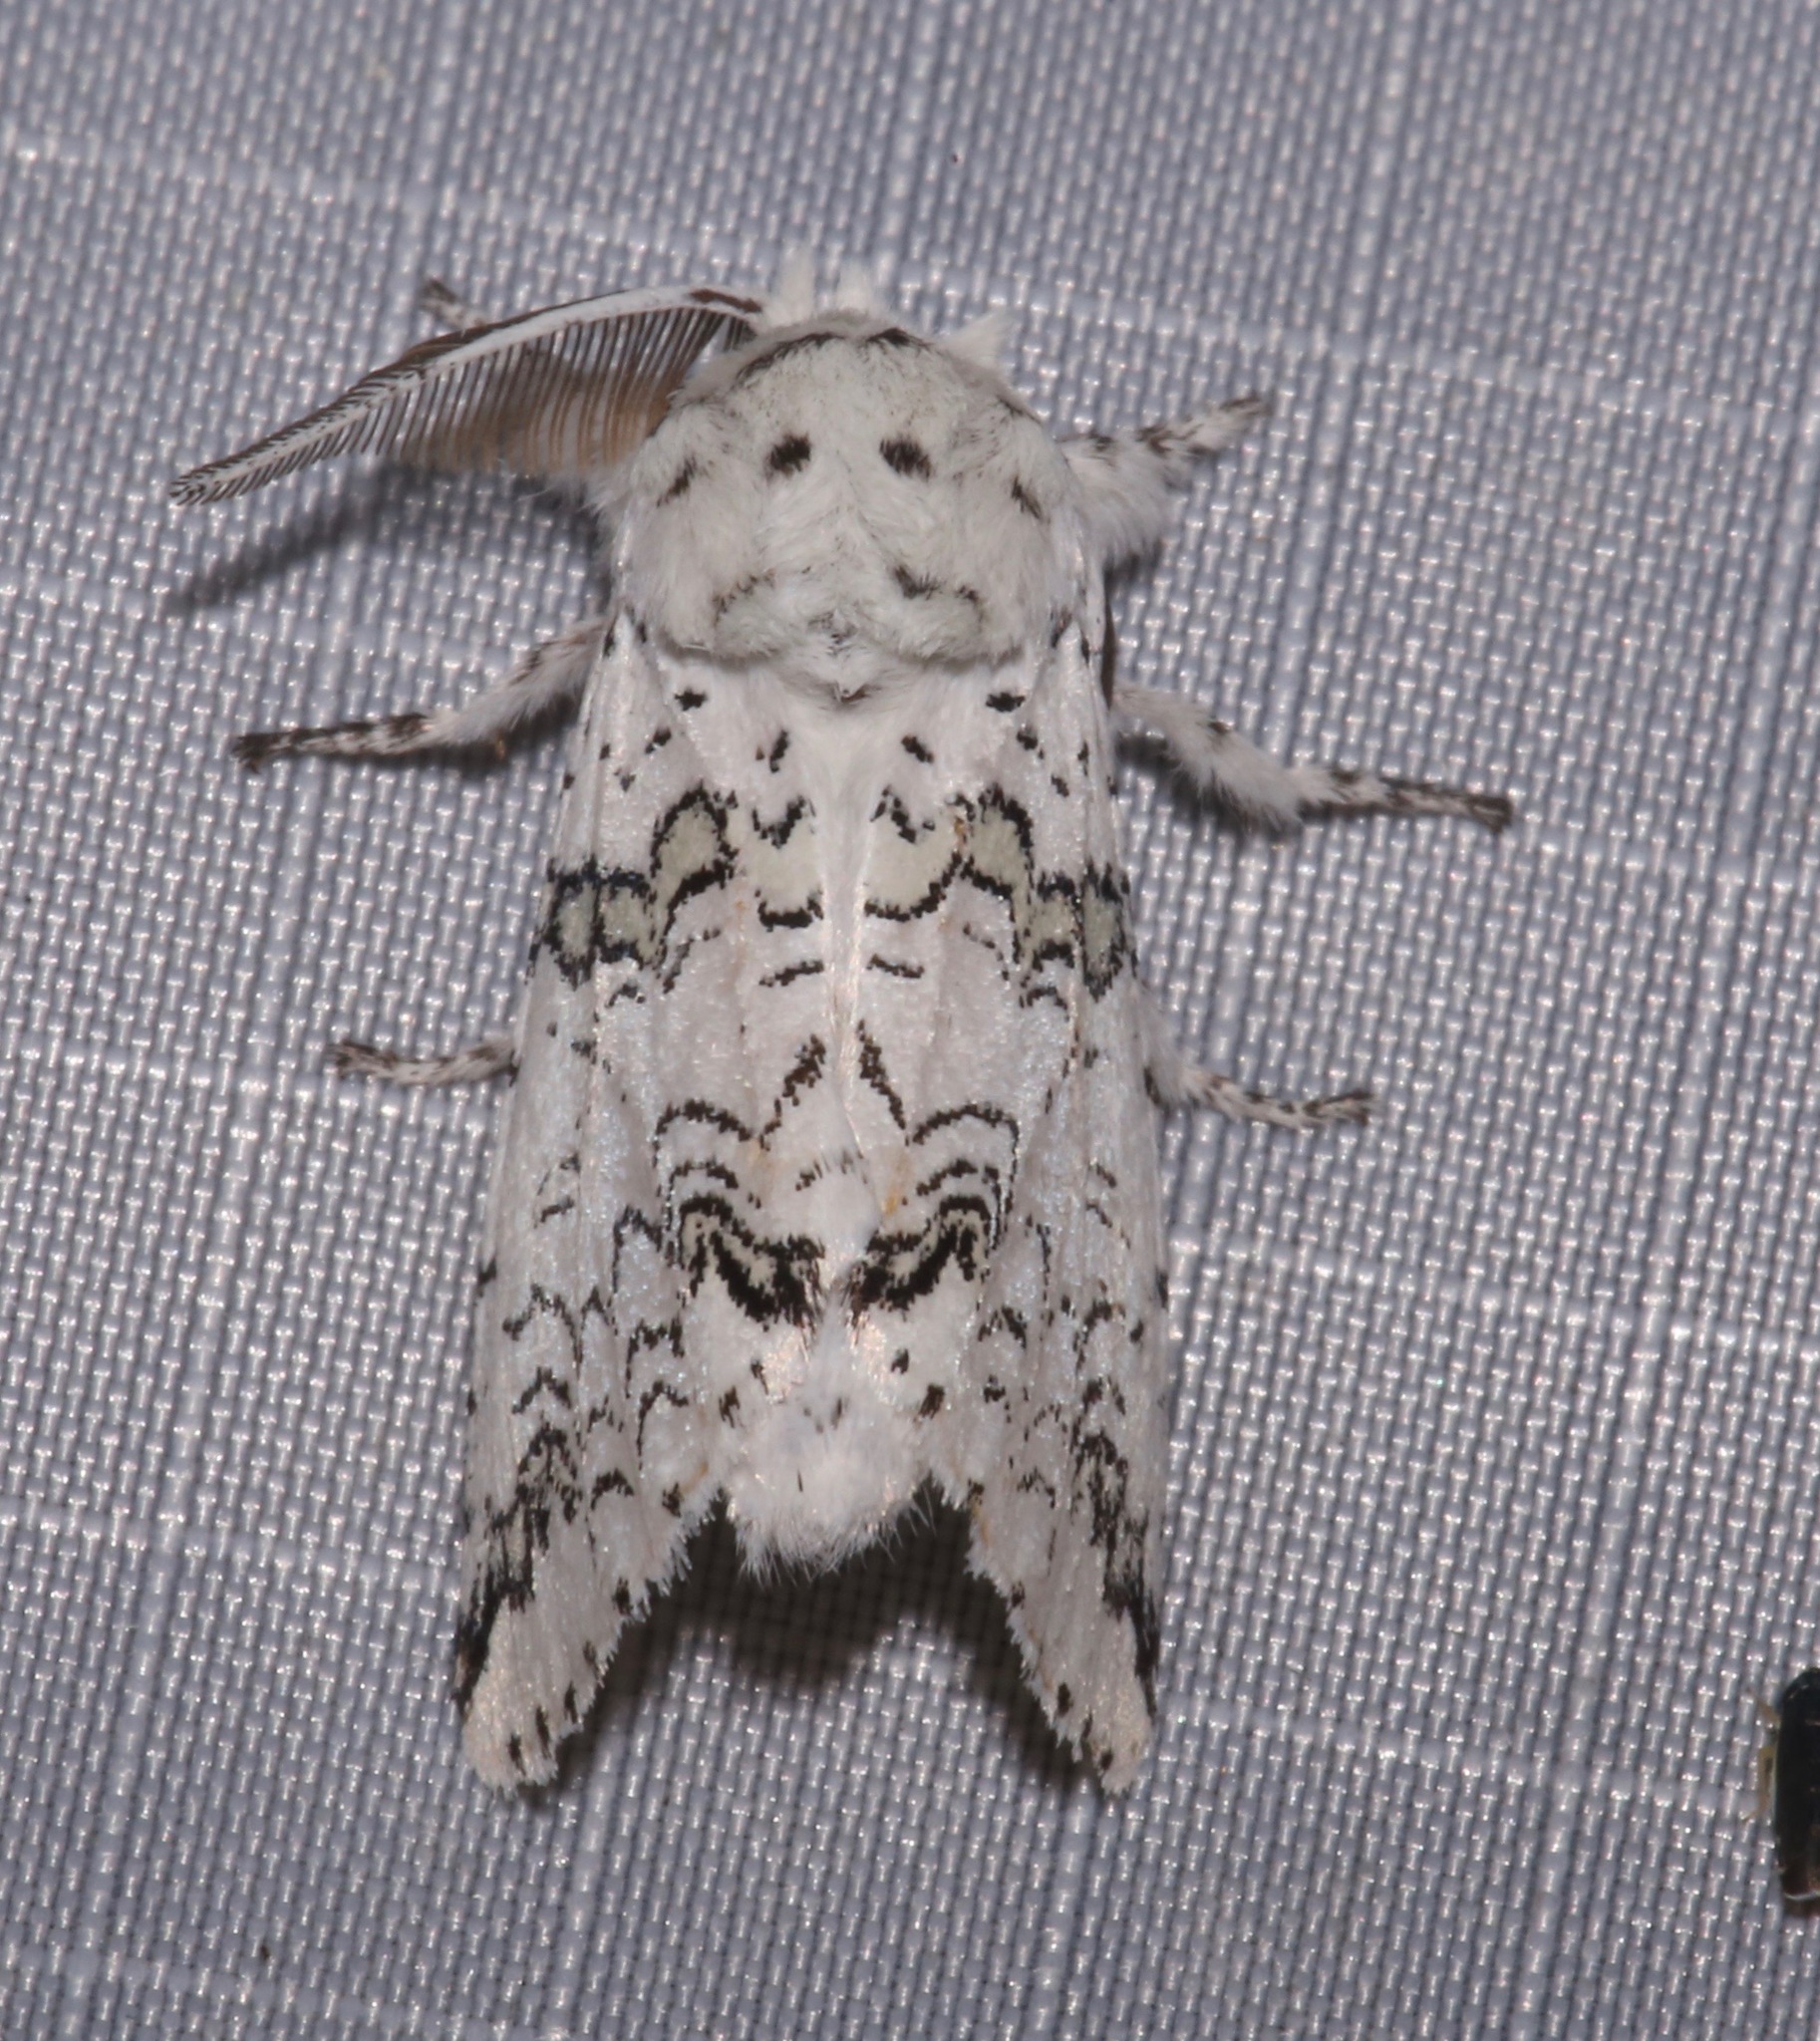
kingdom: Animalia
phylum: Arthropoda
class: Insecta
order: Lepidoptera
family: Notodontidae
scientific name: Notodontidae
